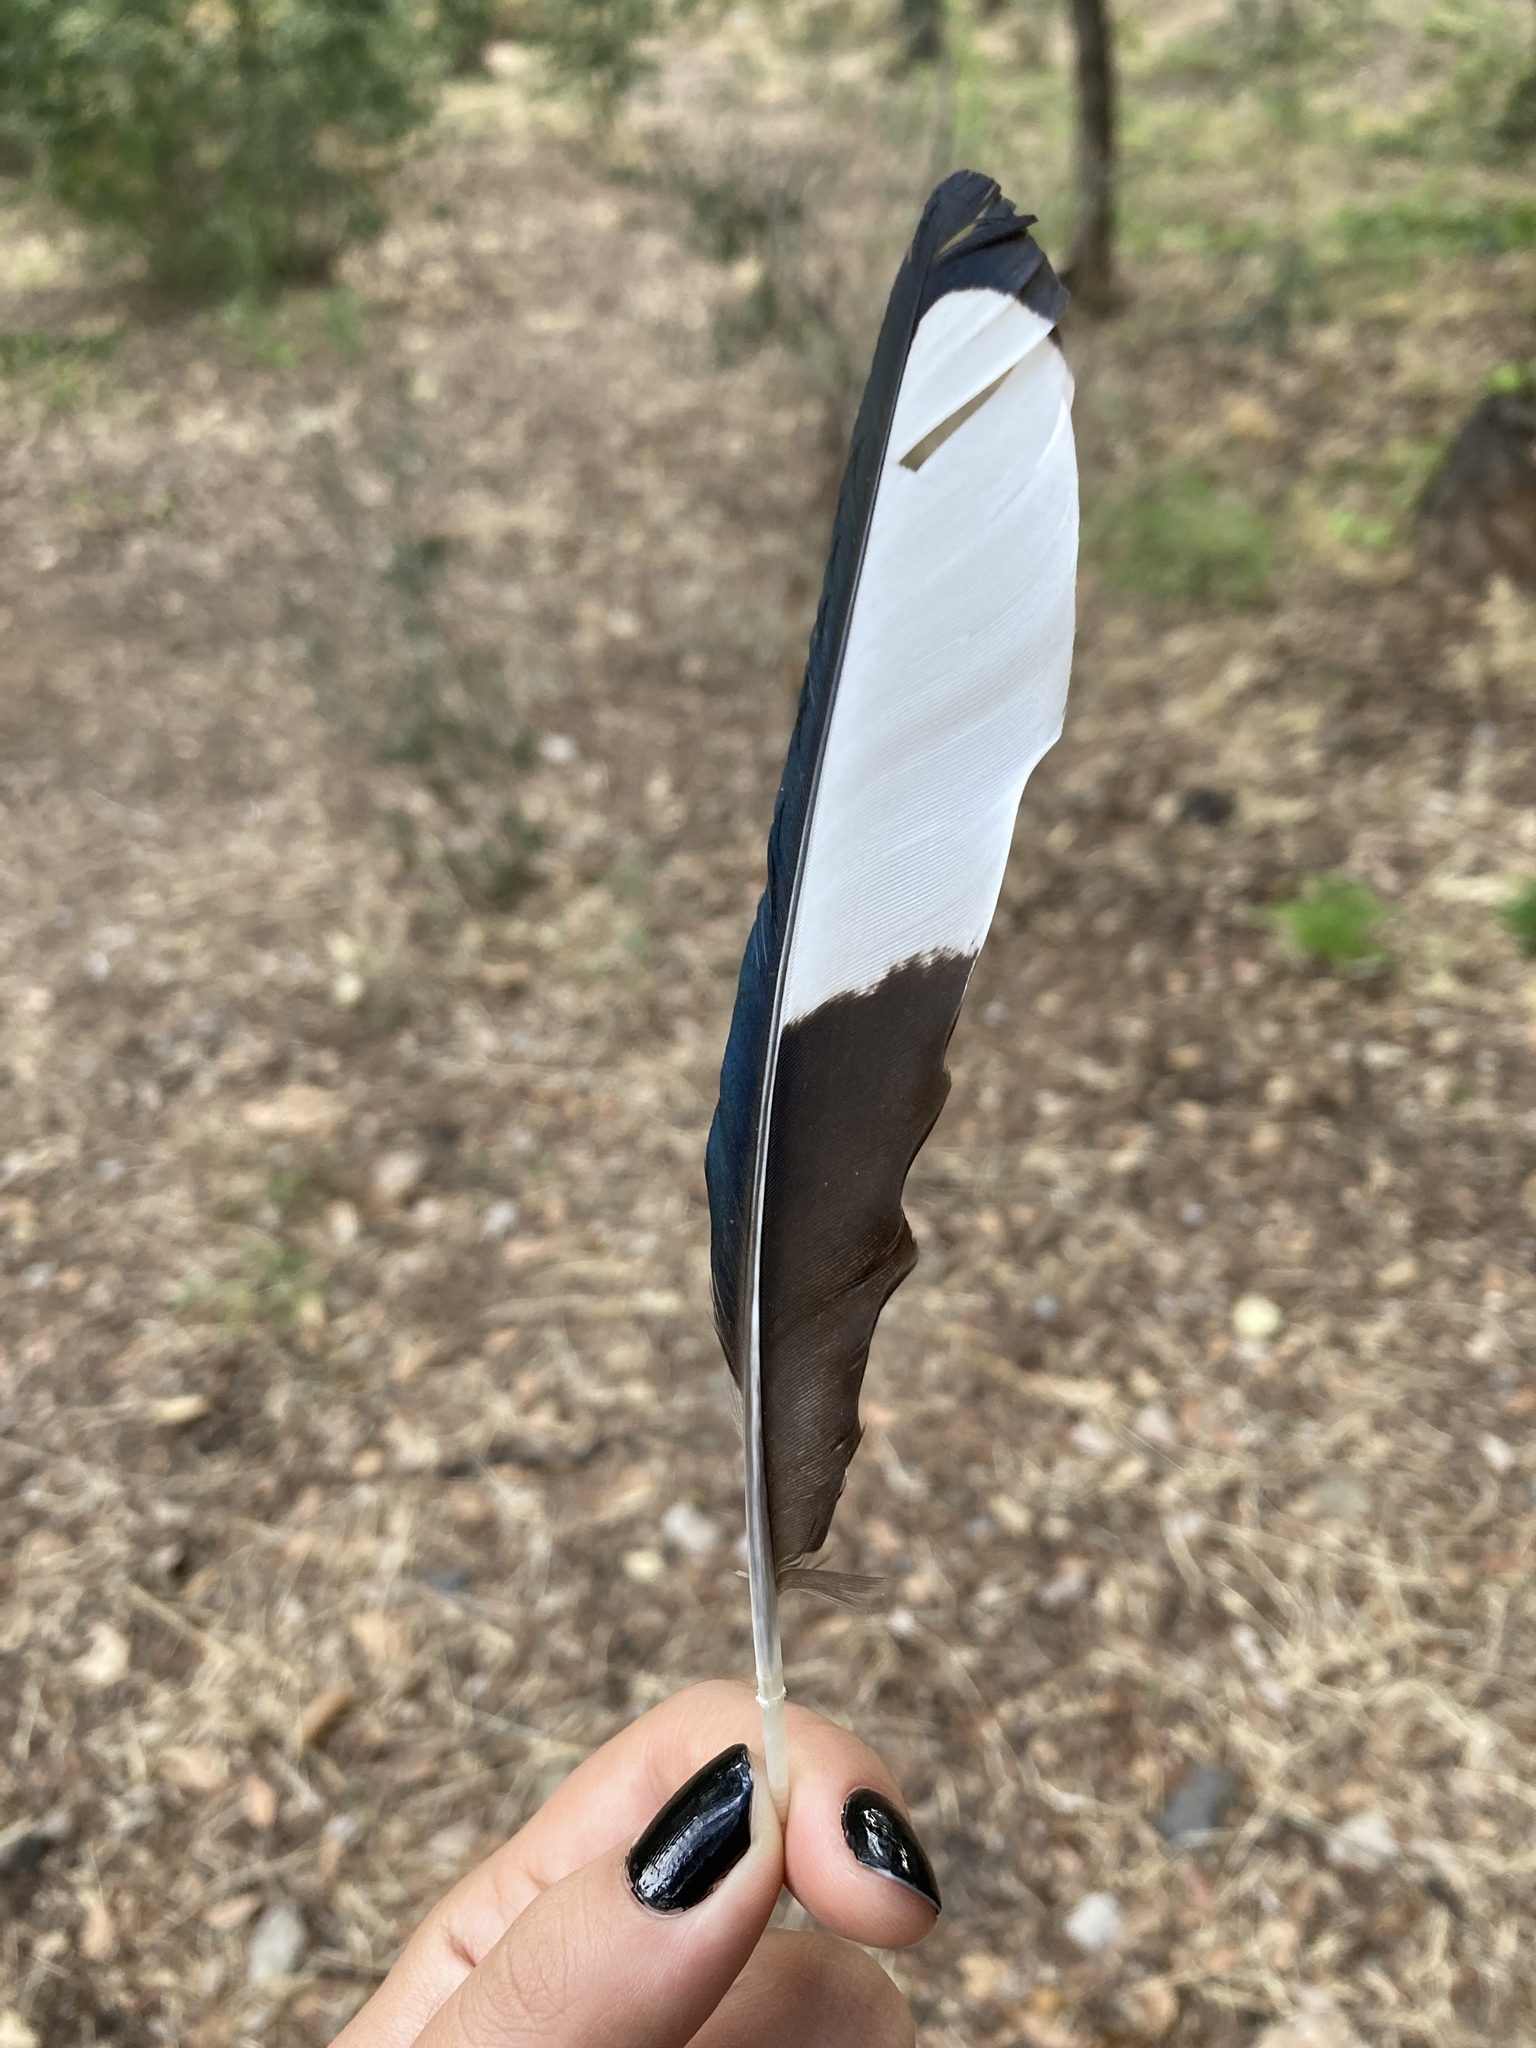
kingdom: Animalia
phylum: Chordata
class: Aves
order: Passeriformes
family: Corvidae
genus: Pica
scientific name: Pica pica
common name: Eurasian magpie
